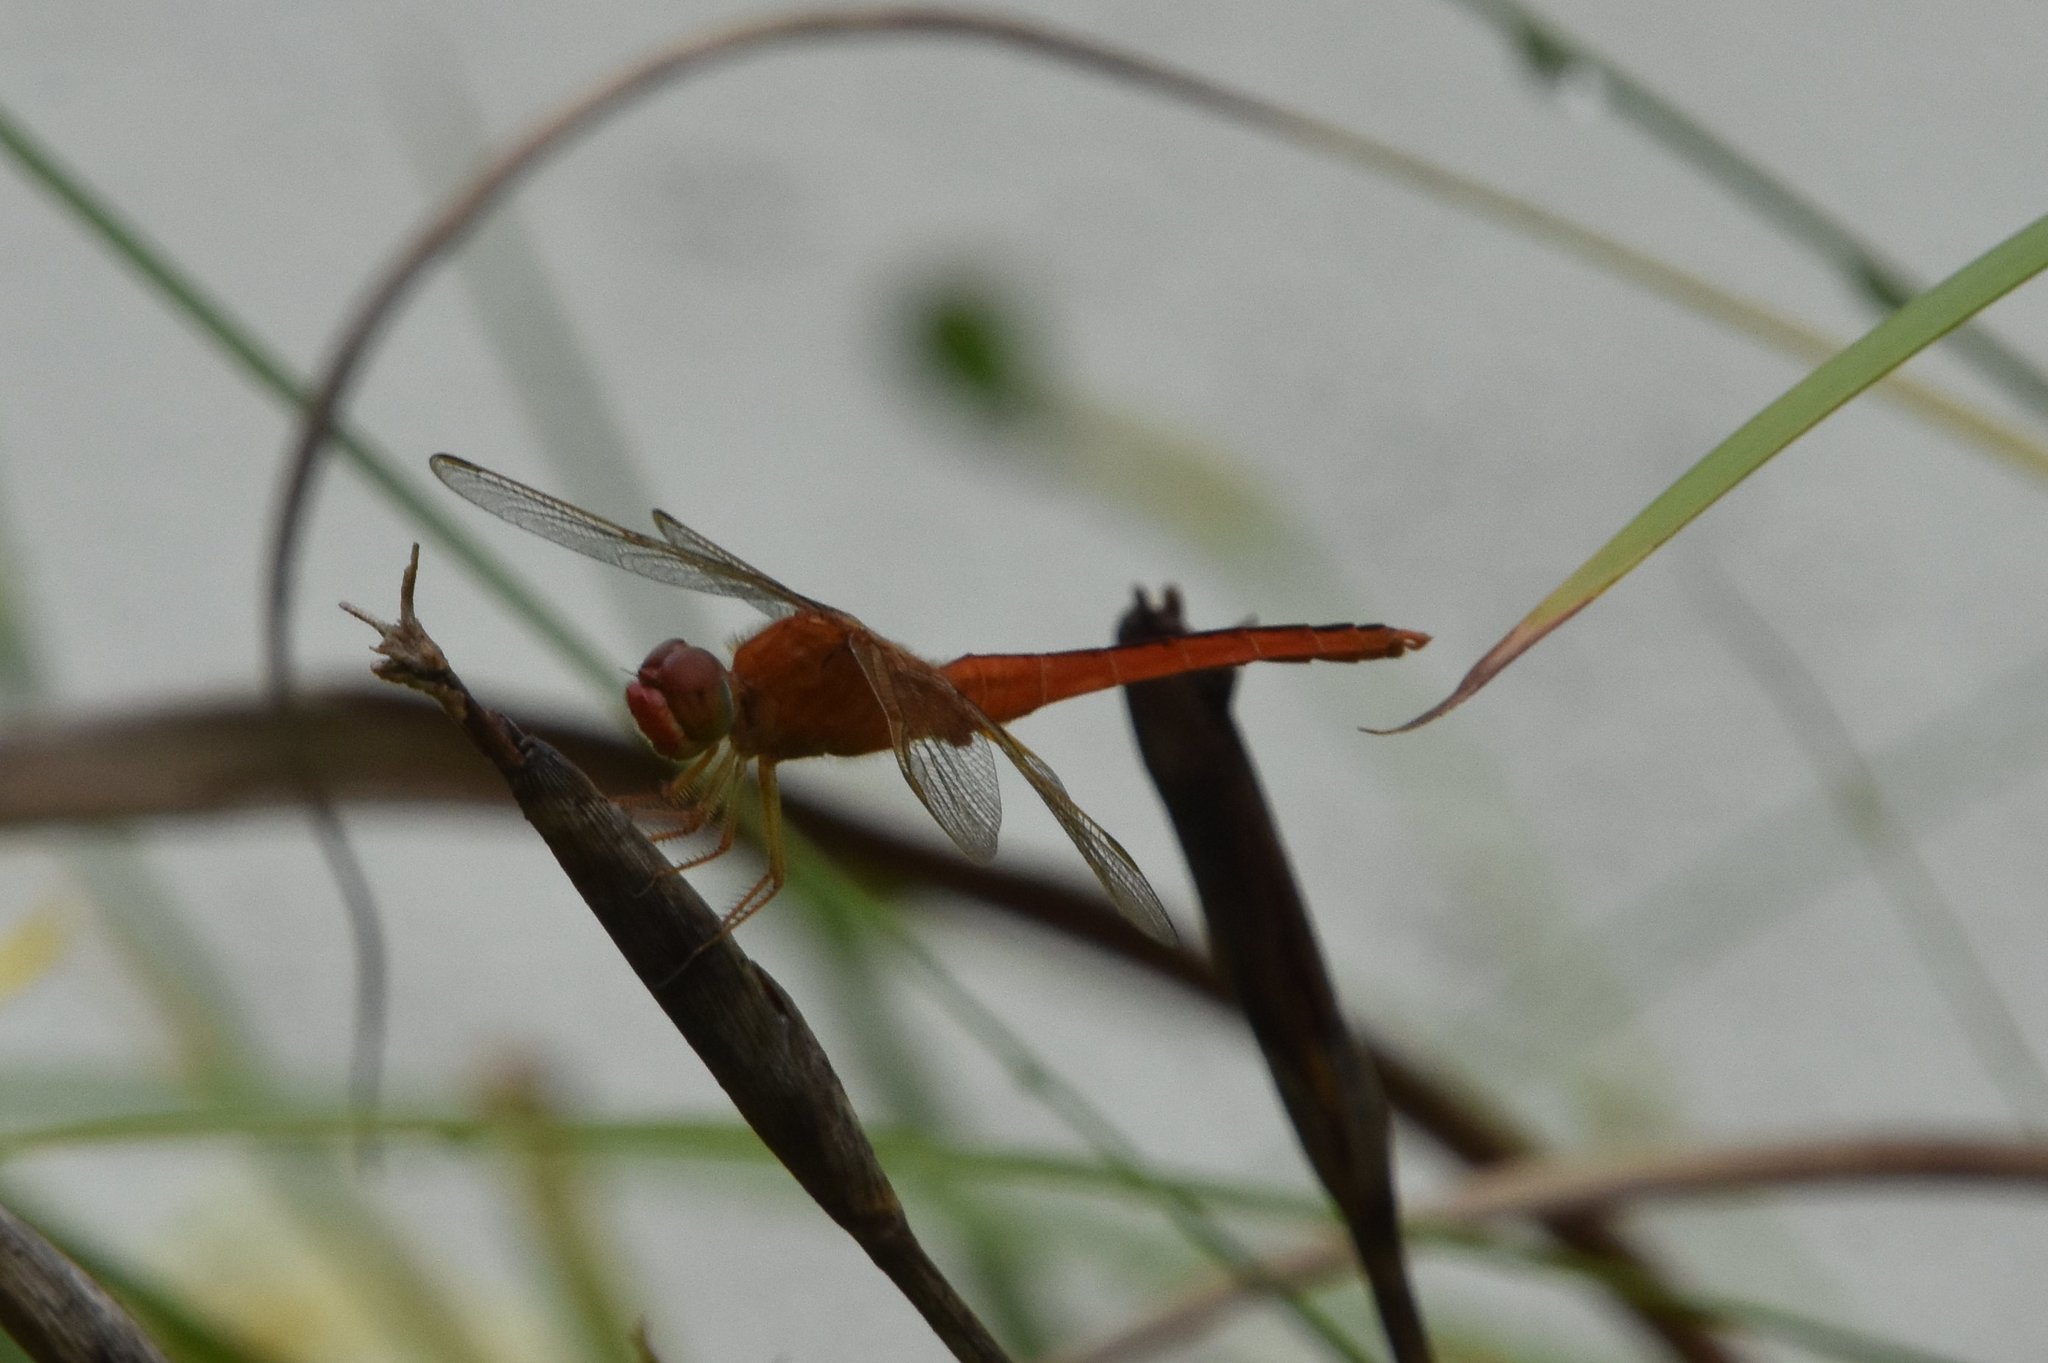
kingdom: Animalia
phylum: Arthropoda
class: Insecta
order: Odonata
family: Libellulidae
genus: Crocothemis
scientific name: Crocothemis servilia
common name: Scarlet skimmer
